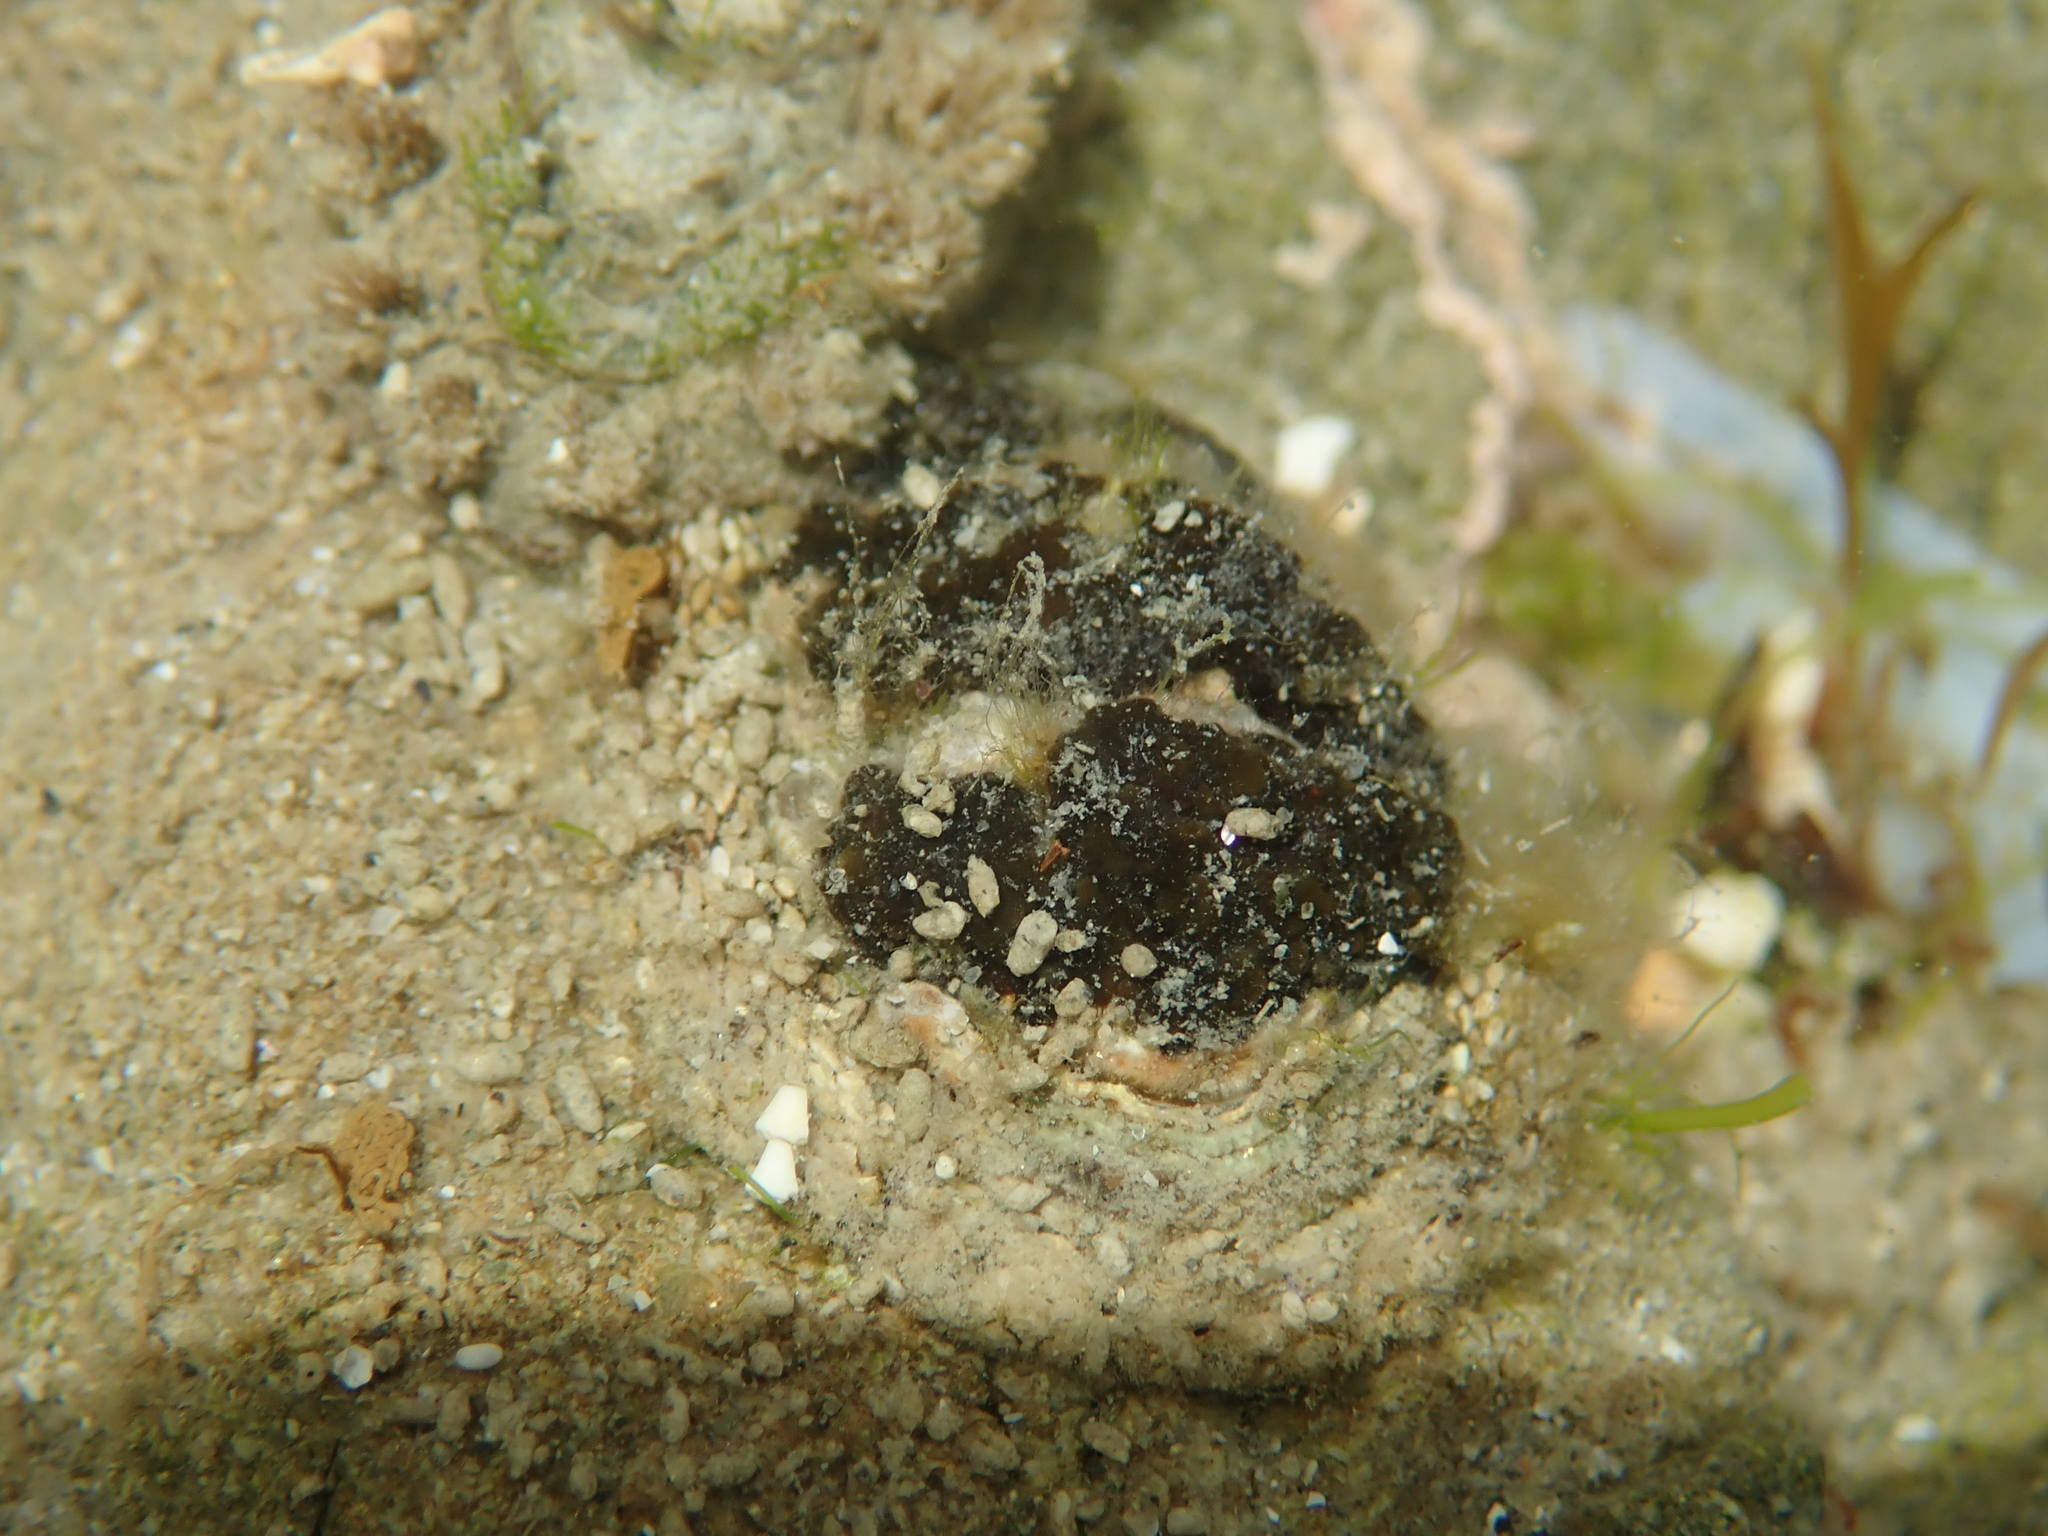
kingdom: Animalia
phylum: Mollusca
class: Polyplacophora
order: Chitonida
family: Chitonidae
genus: Sypharochiton
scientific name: Sypharochiton pelliserpentis
